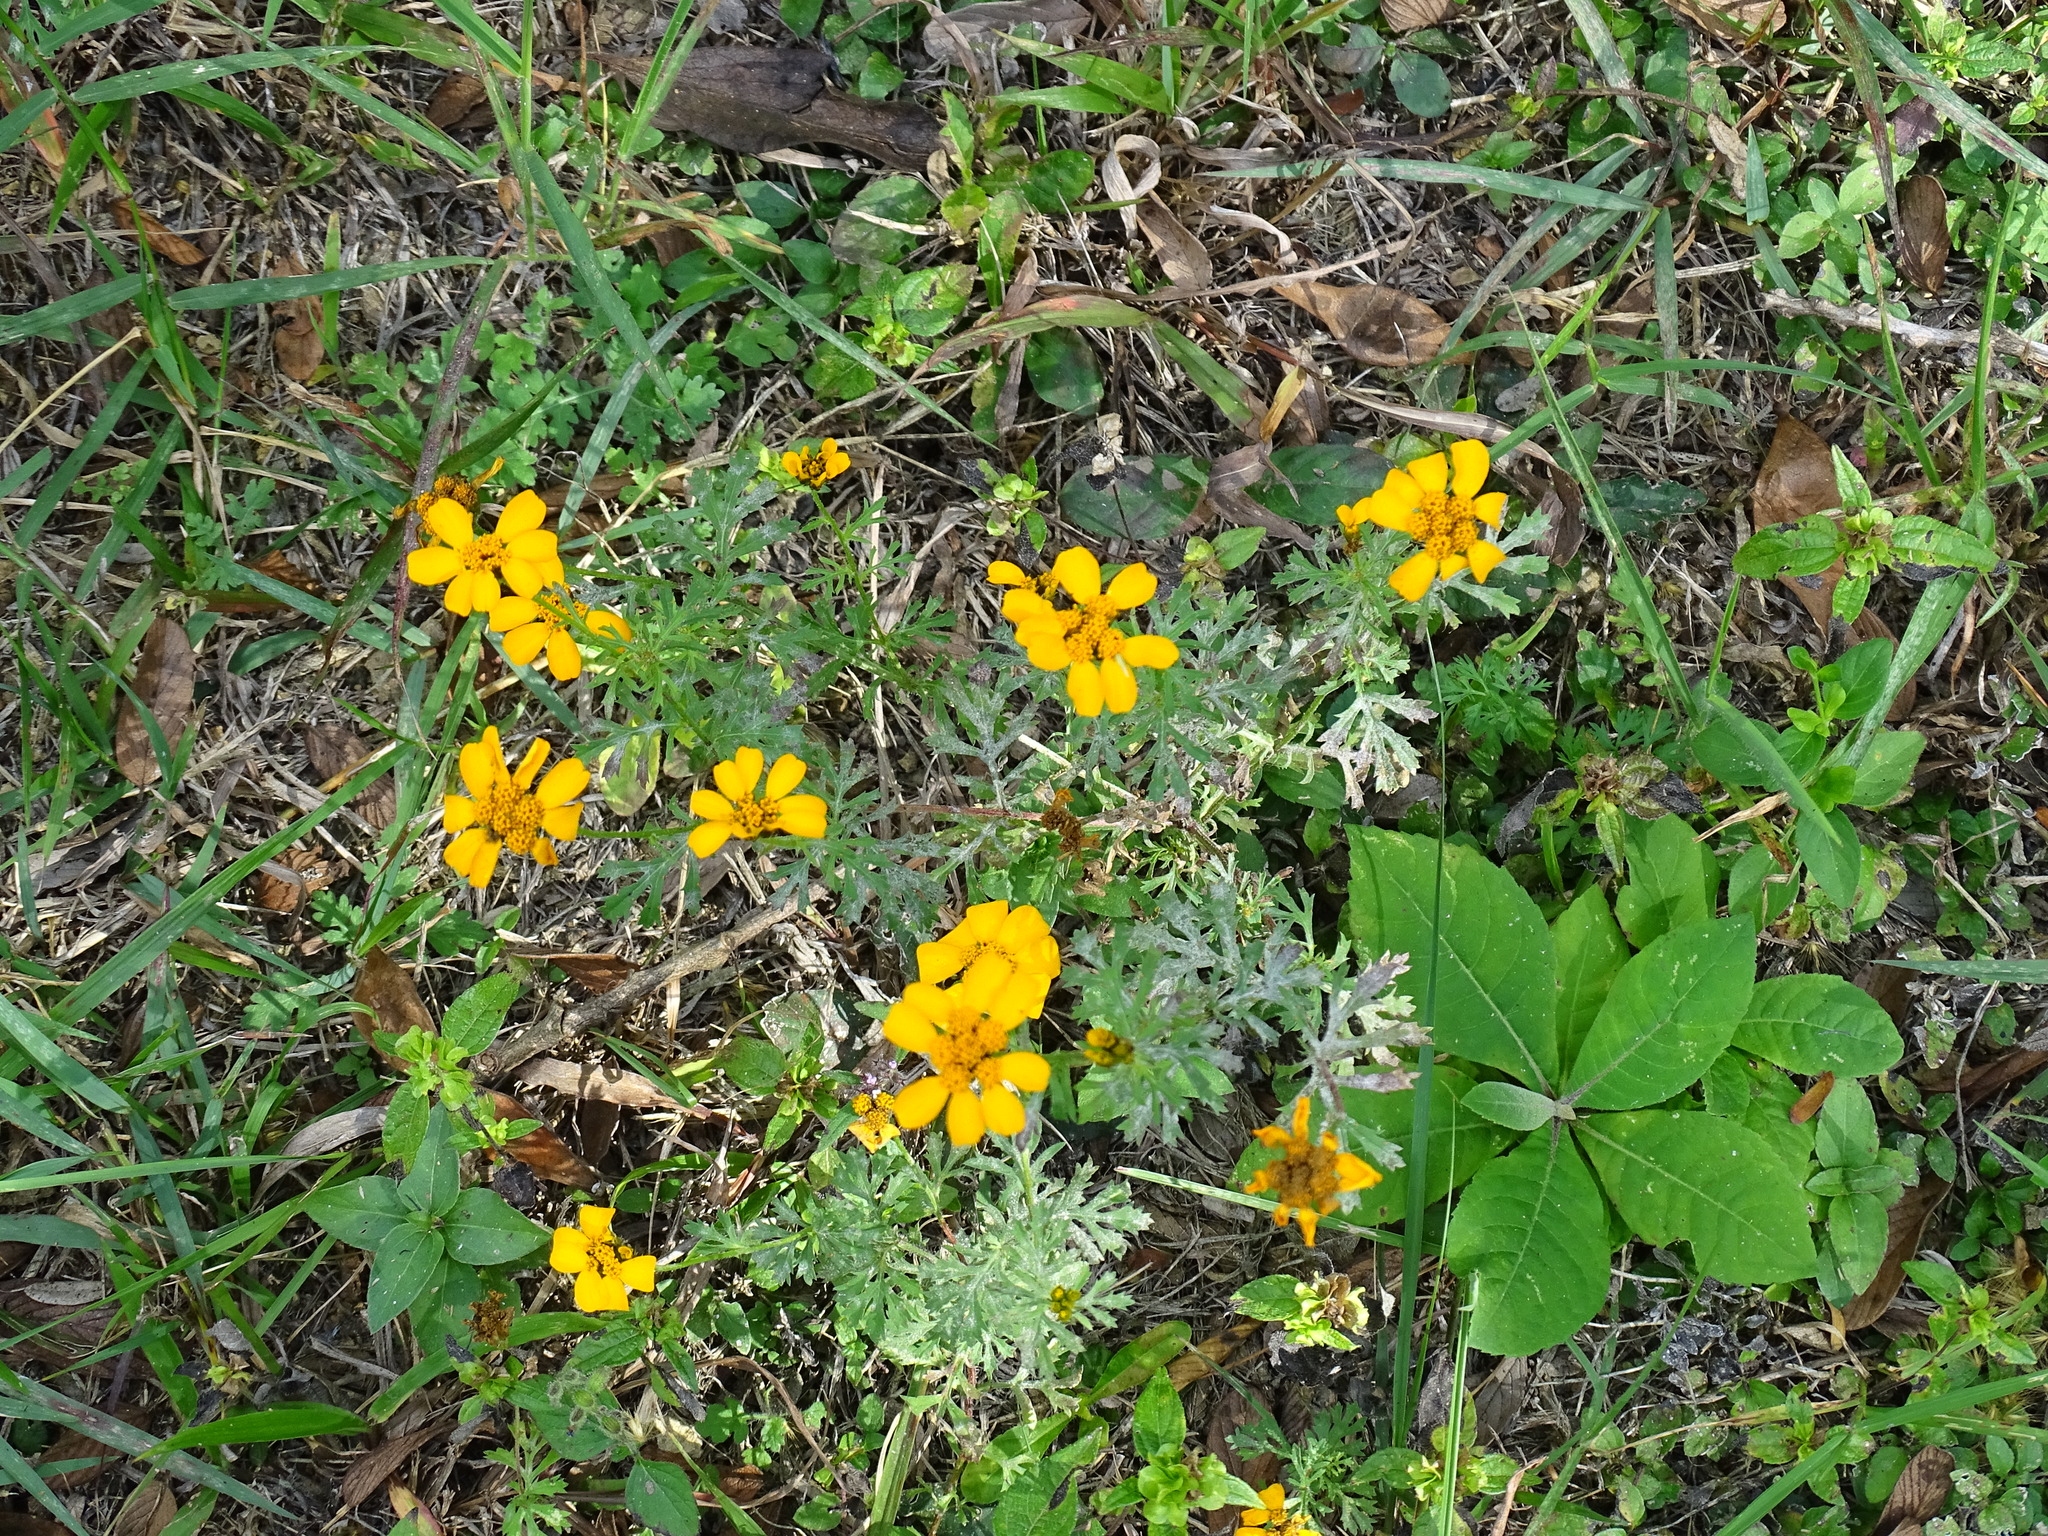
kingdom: Plantae
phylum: Tracheophyta
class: Magnoliopsida
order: Asterales
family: Asteraceae
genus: Dyssodia
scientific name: Dyssodia decipiens
